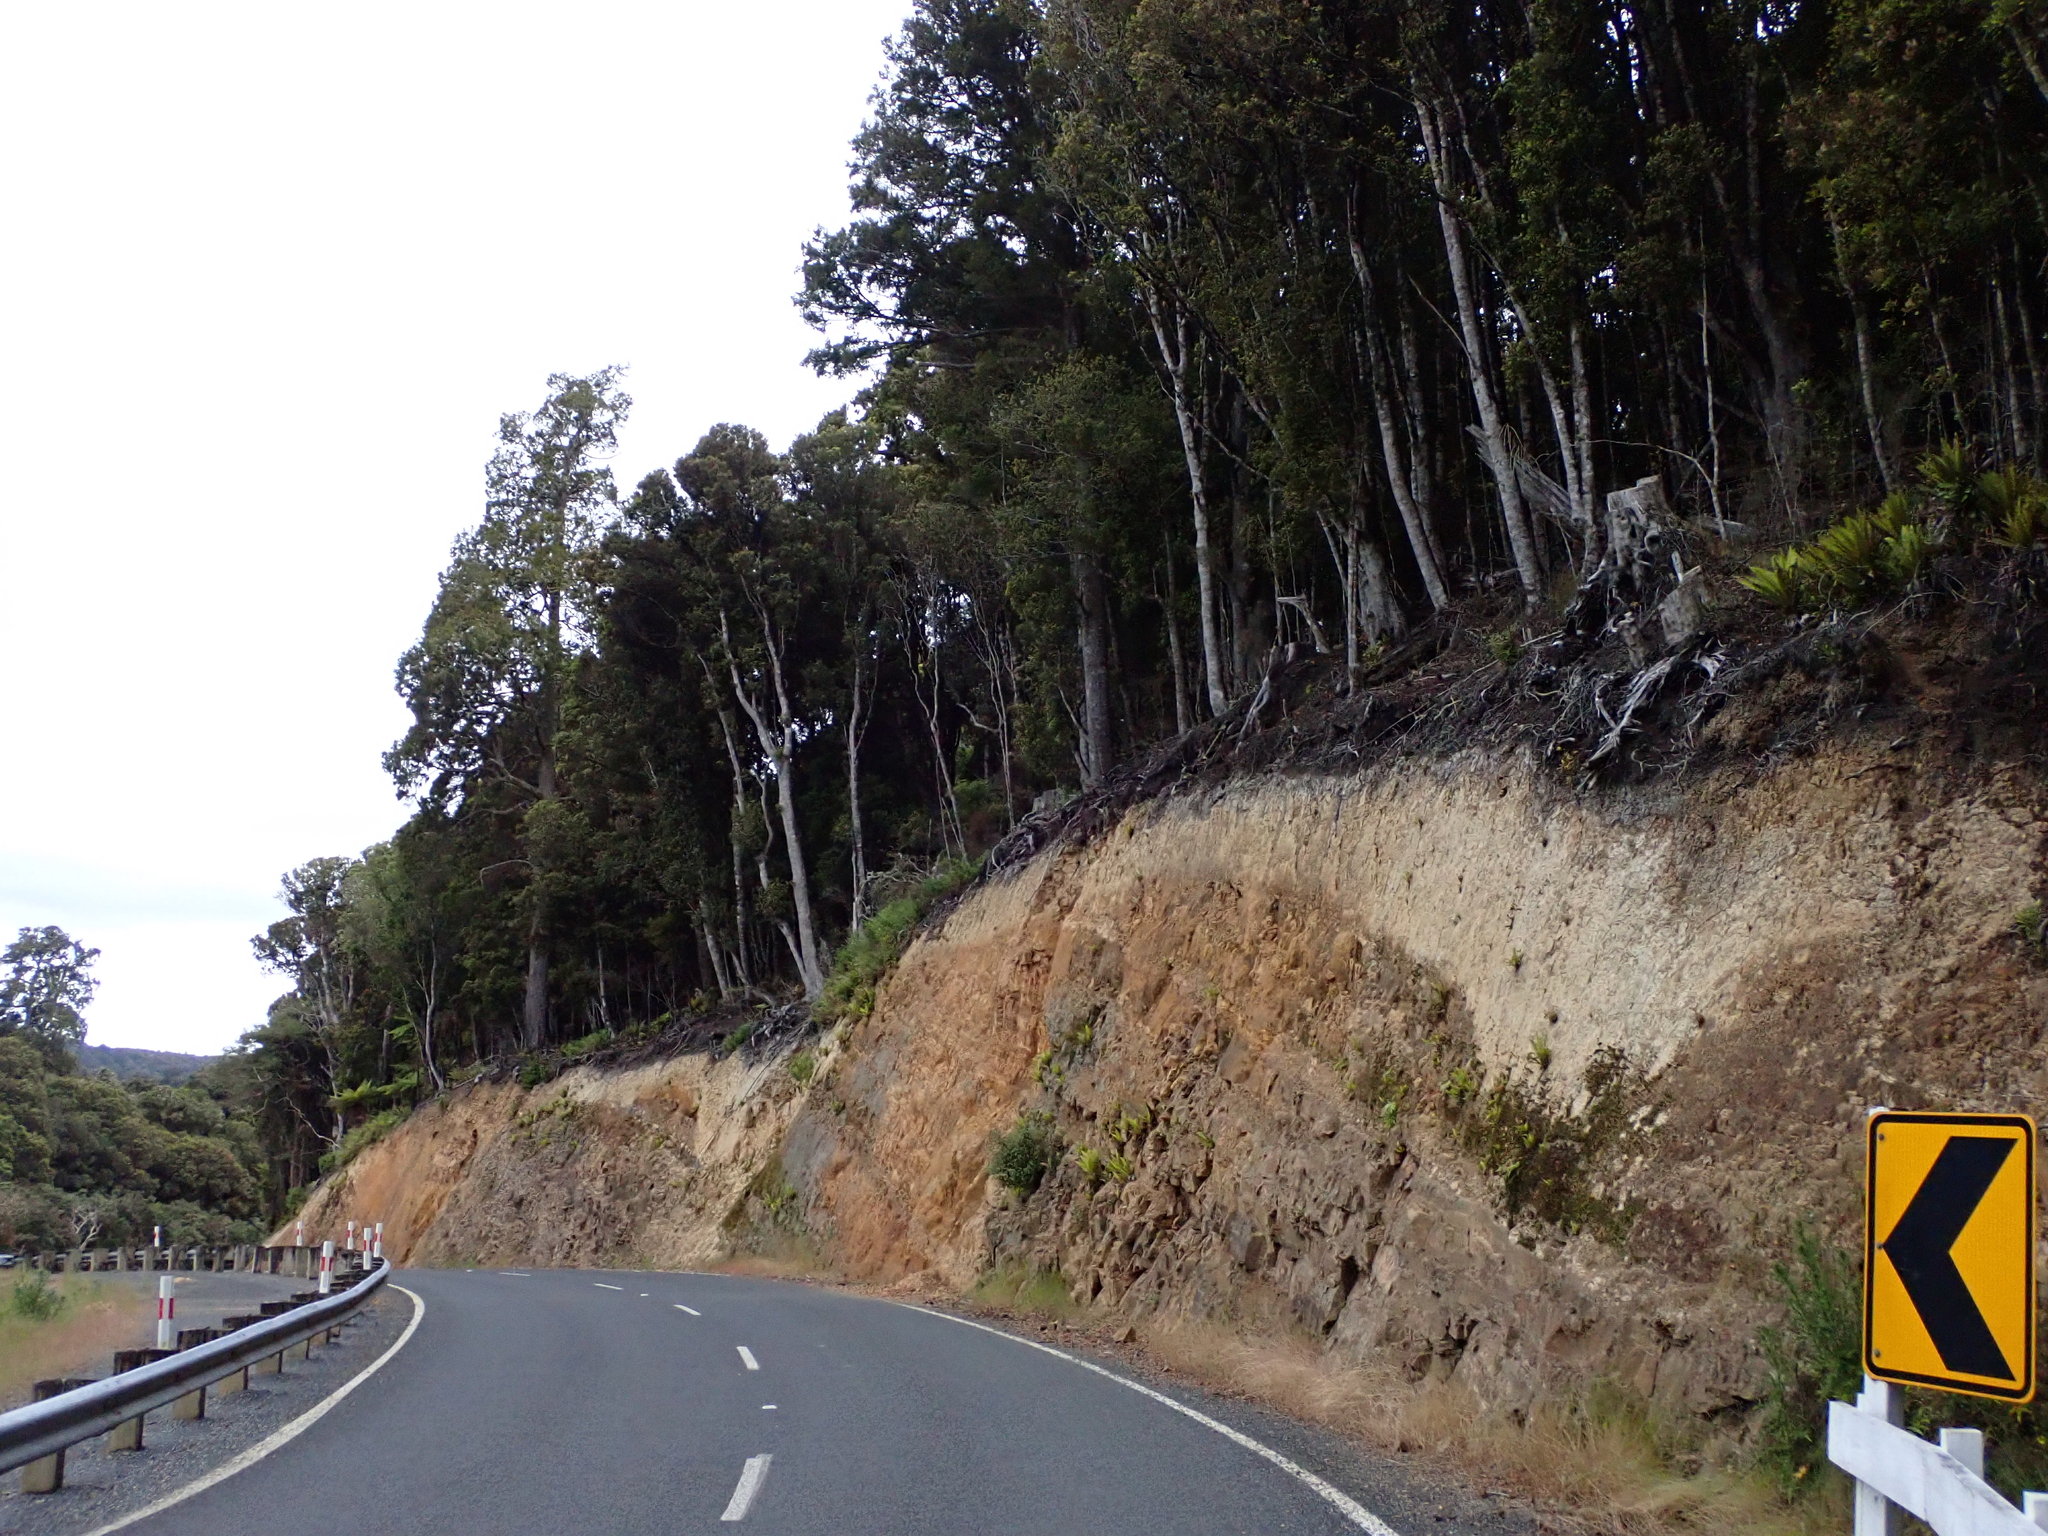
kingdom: Animalia
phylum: Arthropoda
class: Insecta
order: Coleoptera
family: Carabidae
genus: Neocicindela
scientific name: Neocicindela latecincta
